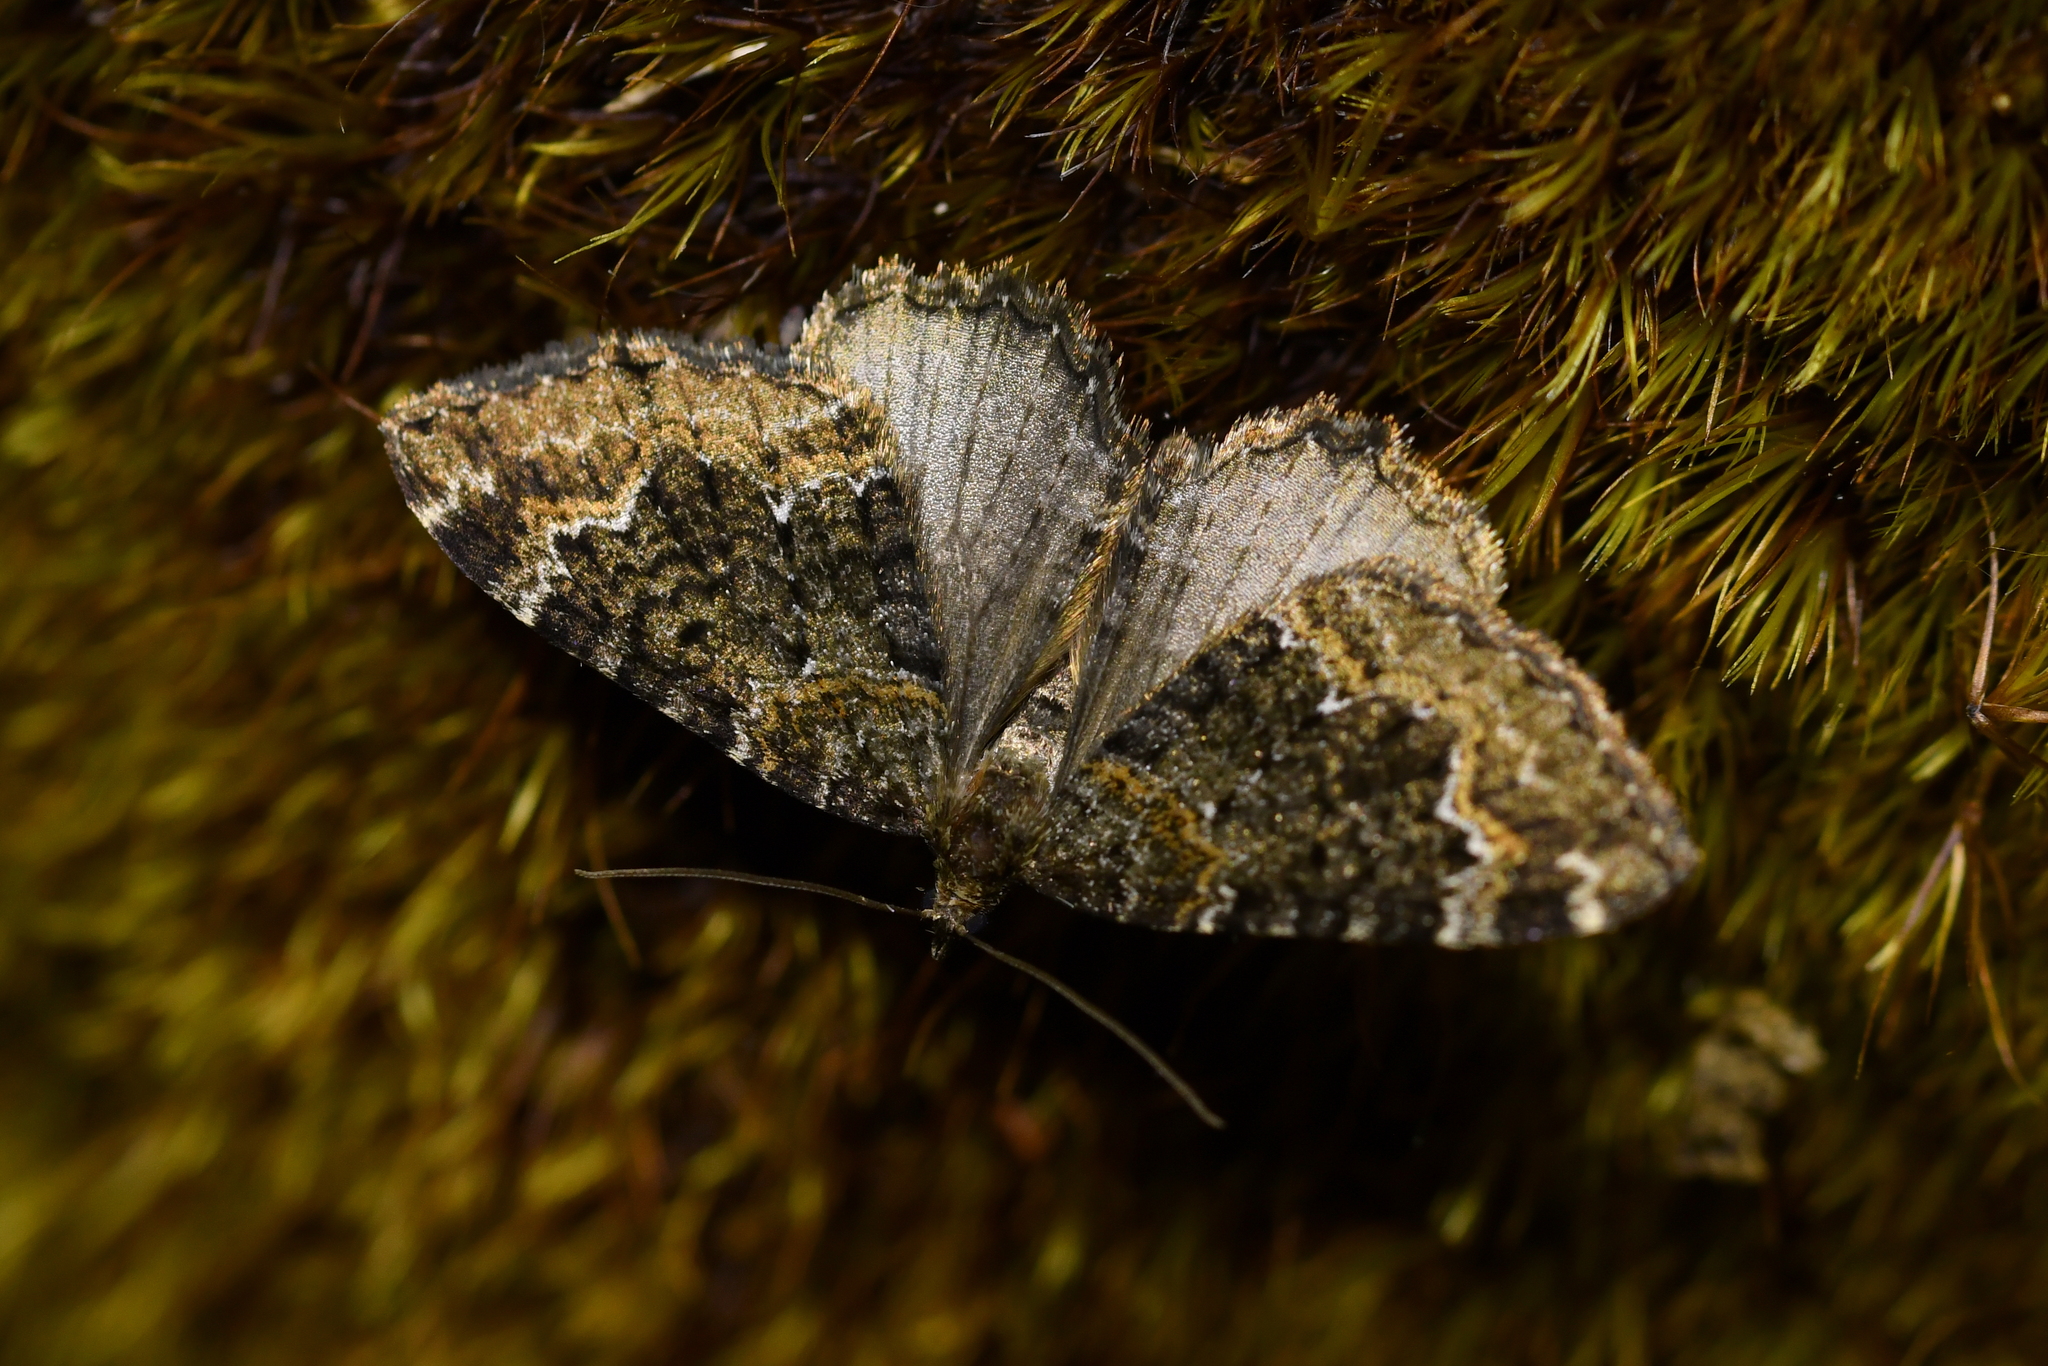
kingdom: Animalia
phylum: Arthropoda
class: Insecta
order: Lepidoptera
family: Geometridae
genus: Hydriomena
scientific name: Hydriomena hemizona
